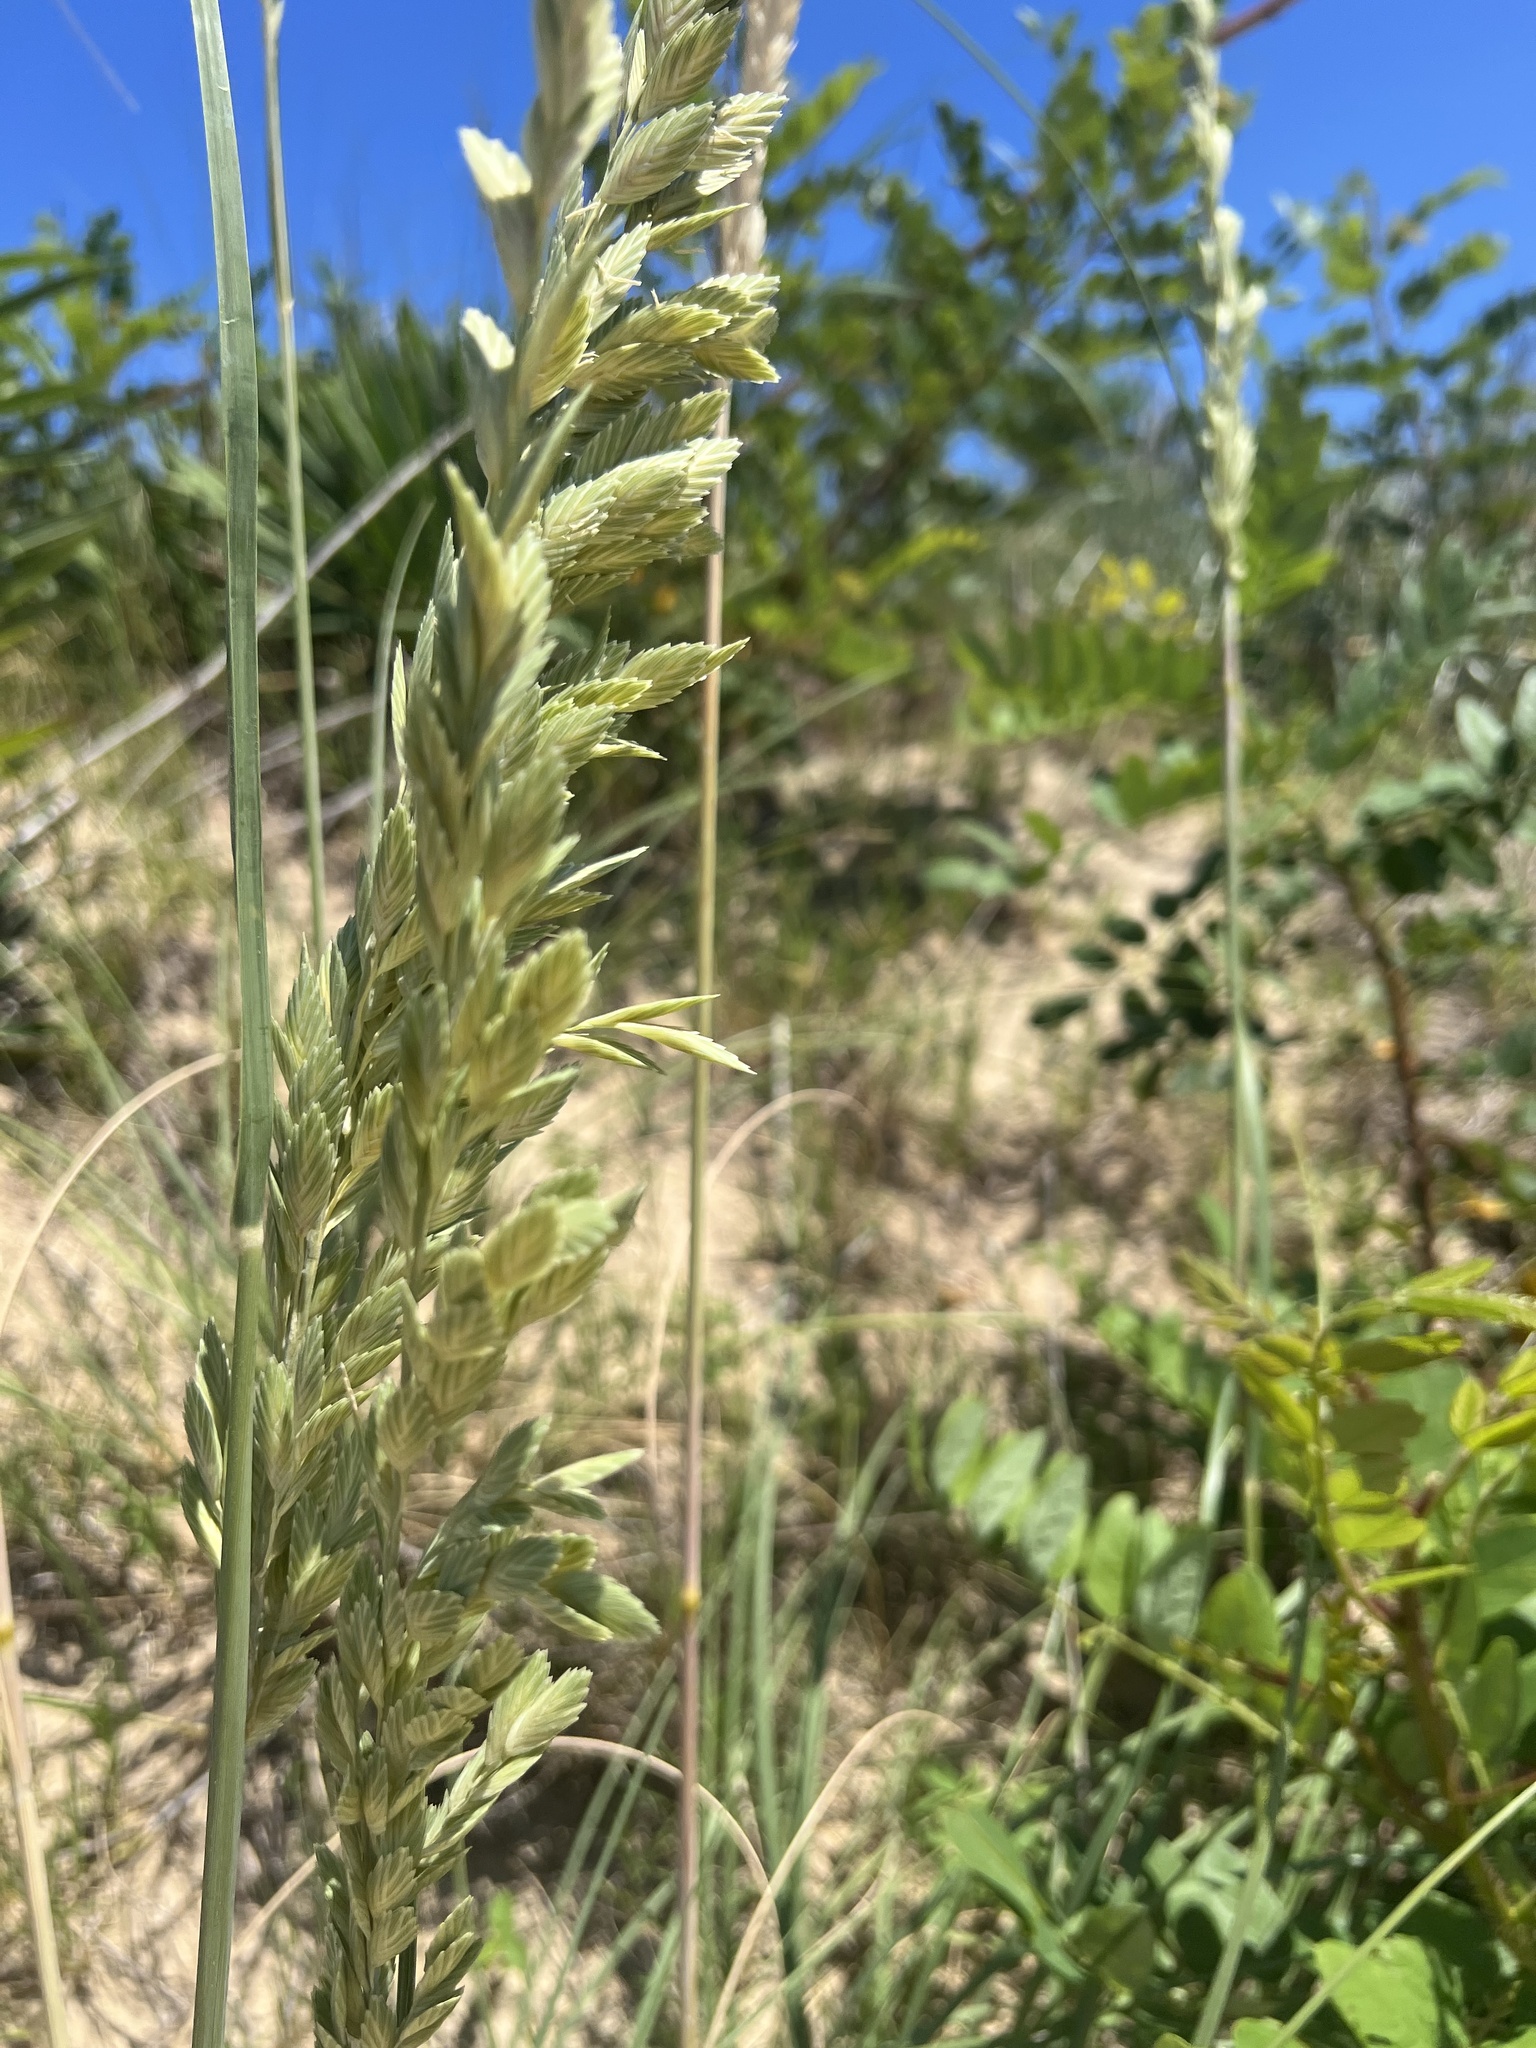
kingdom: Plantae
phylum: Tracheophyta
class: Liliopsida
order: Poales
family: Poaceae
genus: Uniola
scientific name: Uniola paniculata
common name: Seaside-oats
